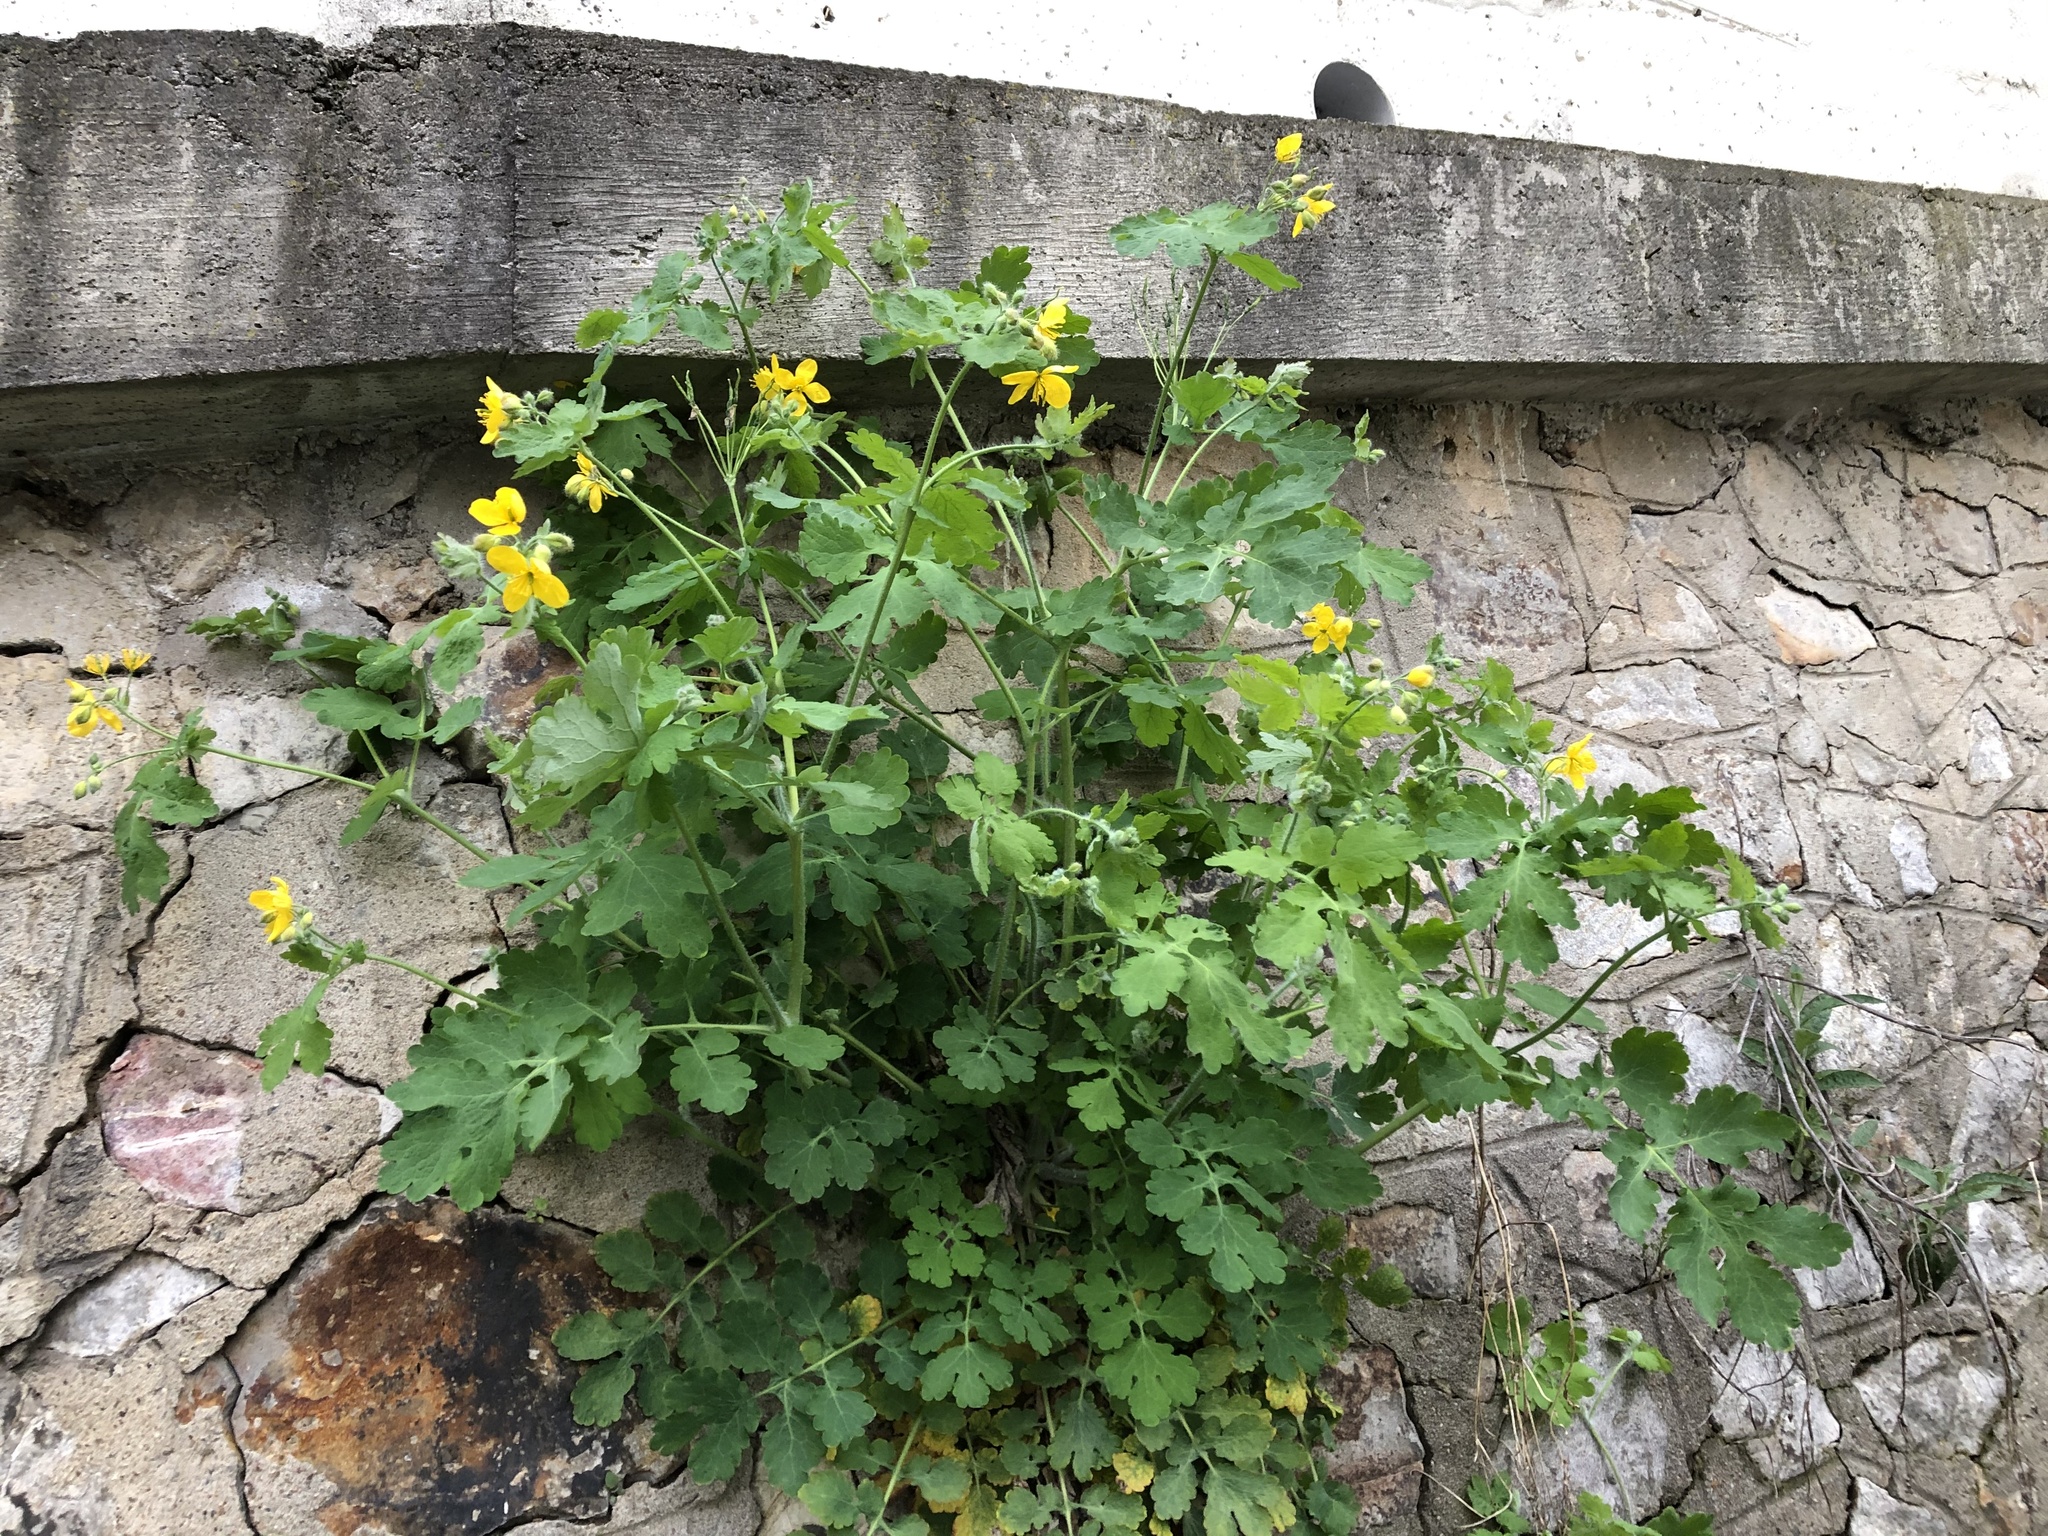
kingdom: Plantae
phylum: Tracheophyta
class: Magnoliopsida
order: Ranunculales
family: Papaveraceae
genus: Chelidonium
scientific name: Chelidonium majus
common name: Greater celandine
